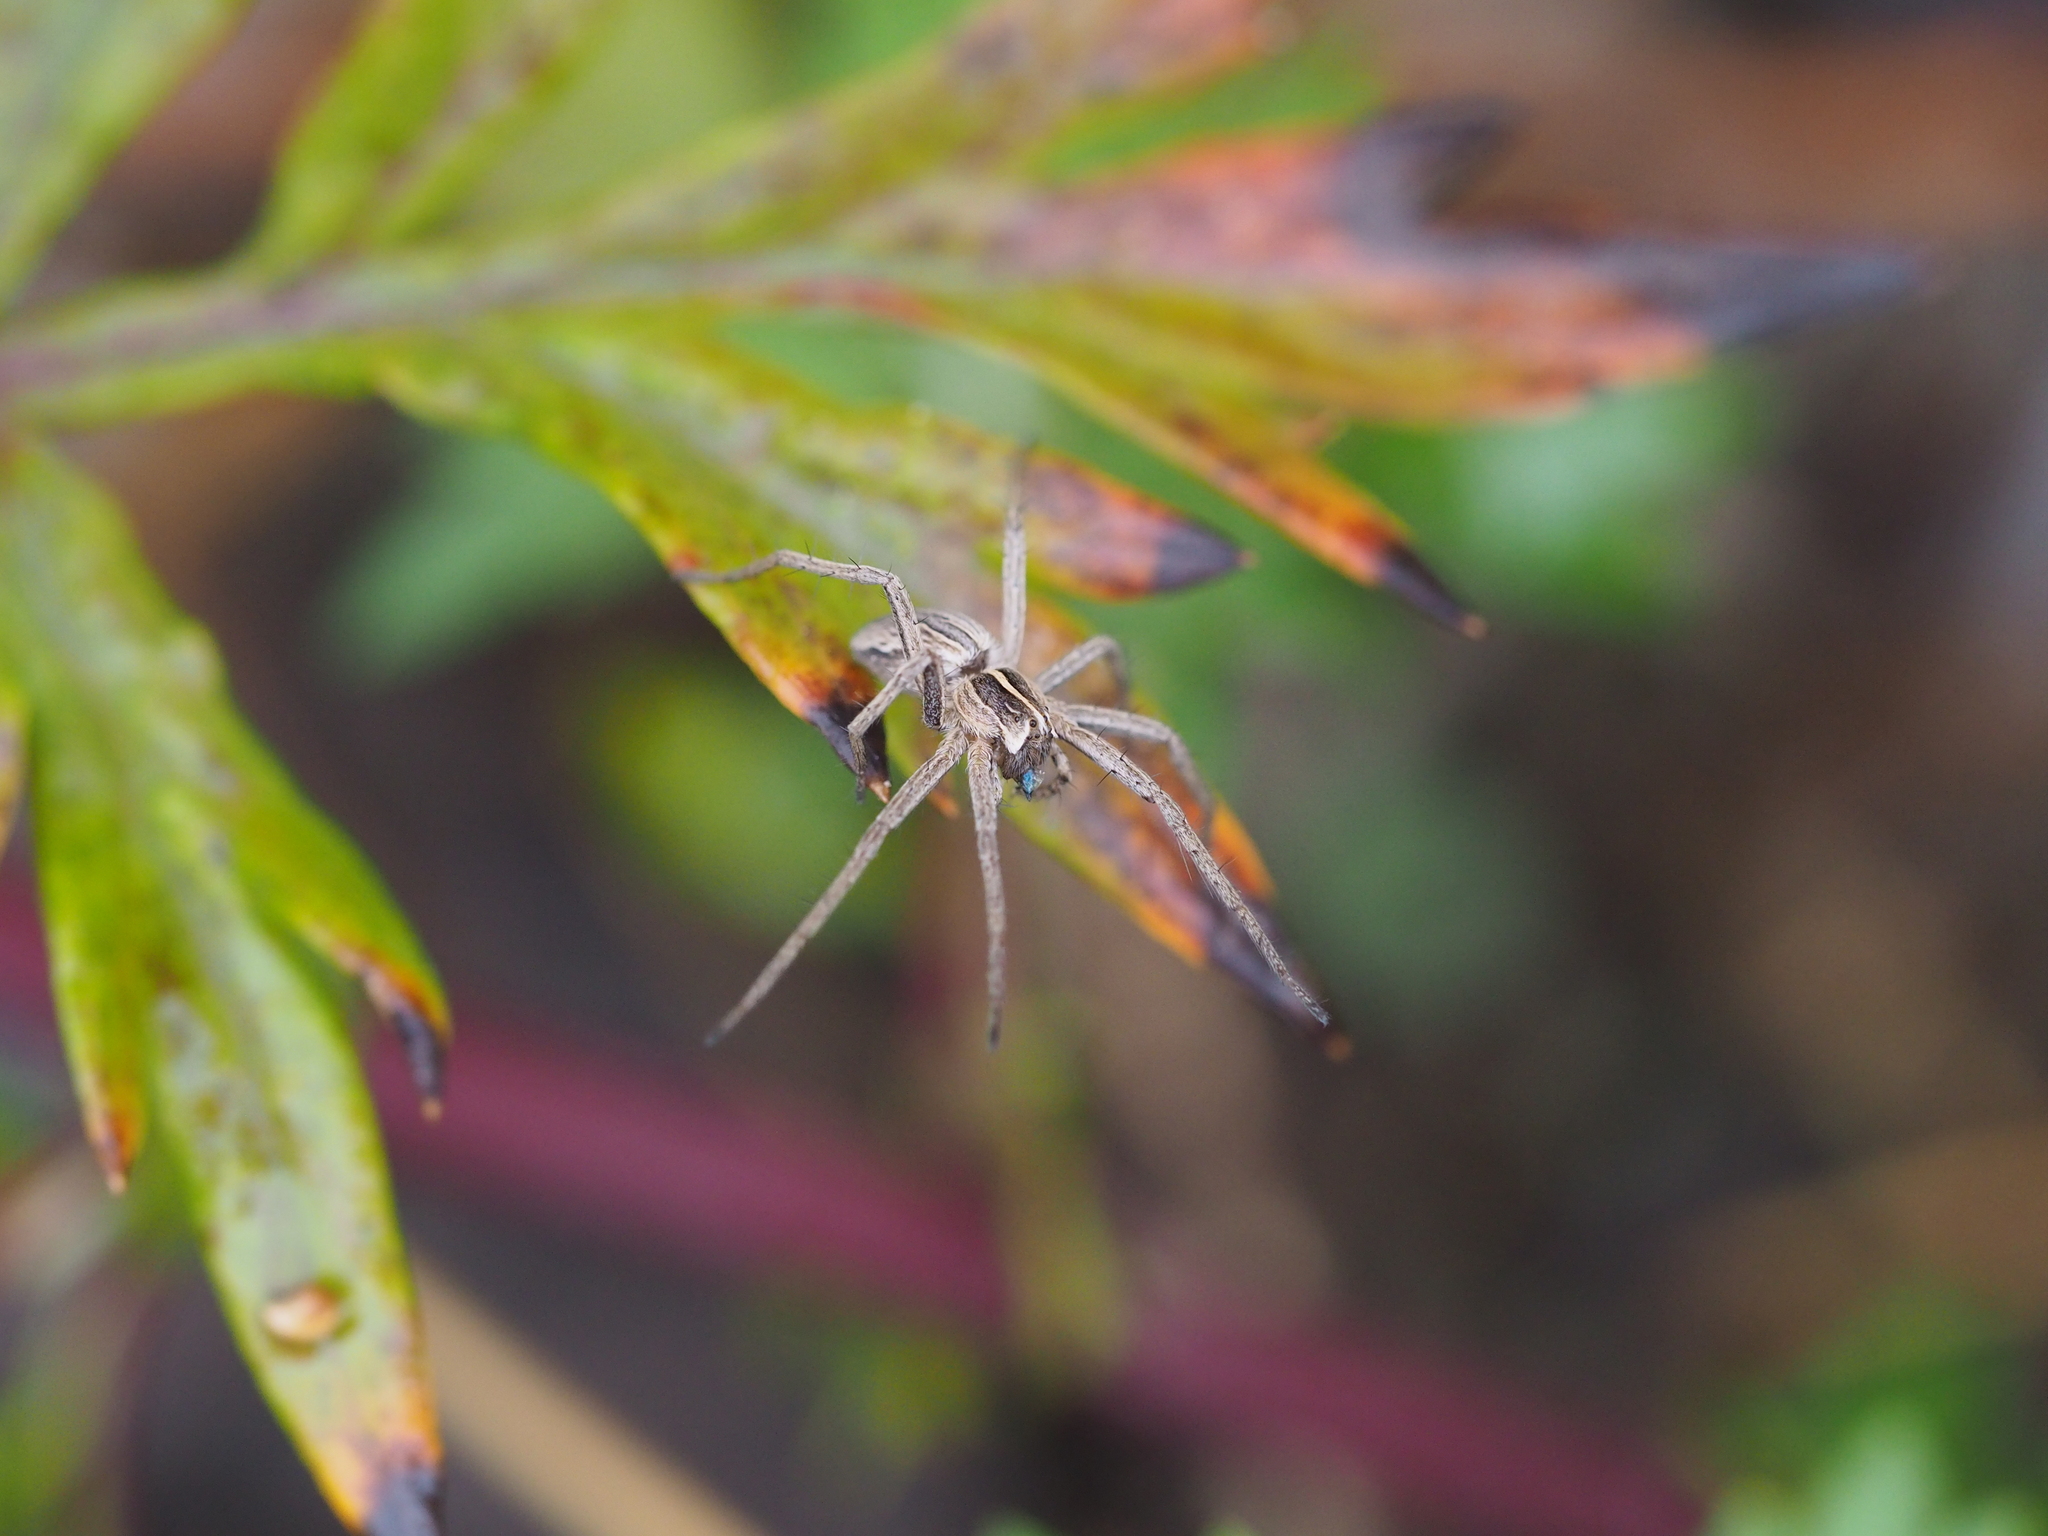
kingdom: Animalia
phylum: Arthropoda
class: Arachnida
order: Araneae
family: Pisauridae
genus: Pisaura
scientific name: Pisaura mirabilis
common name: Tent spider
